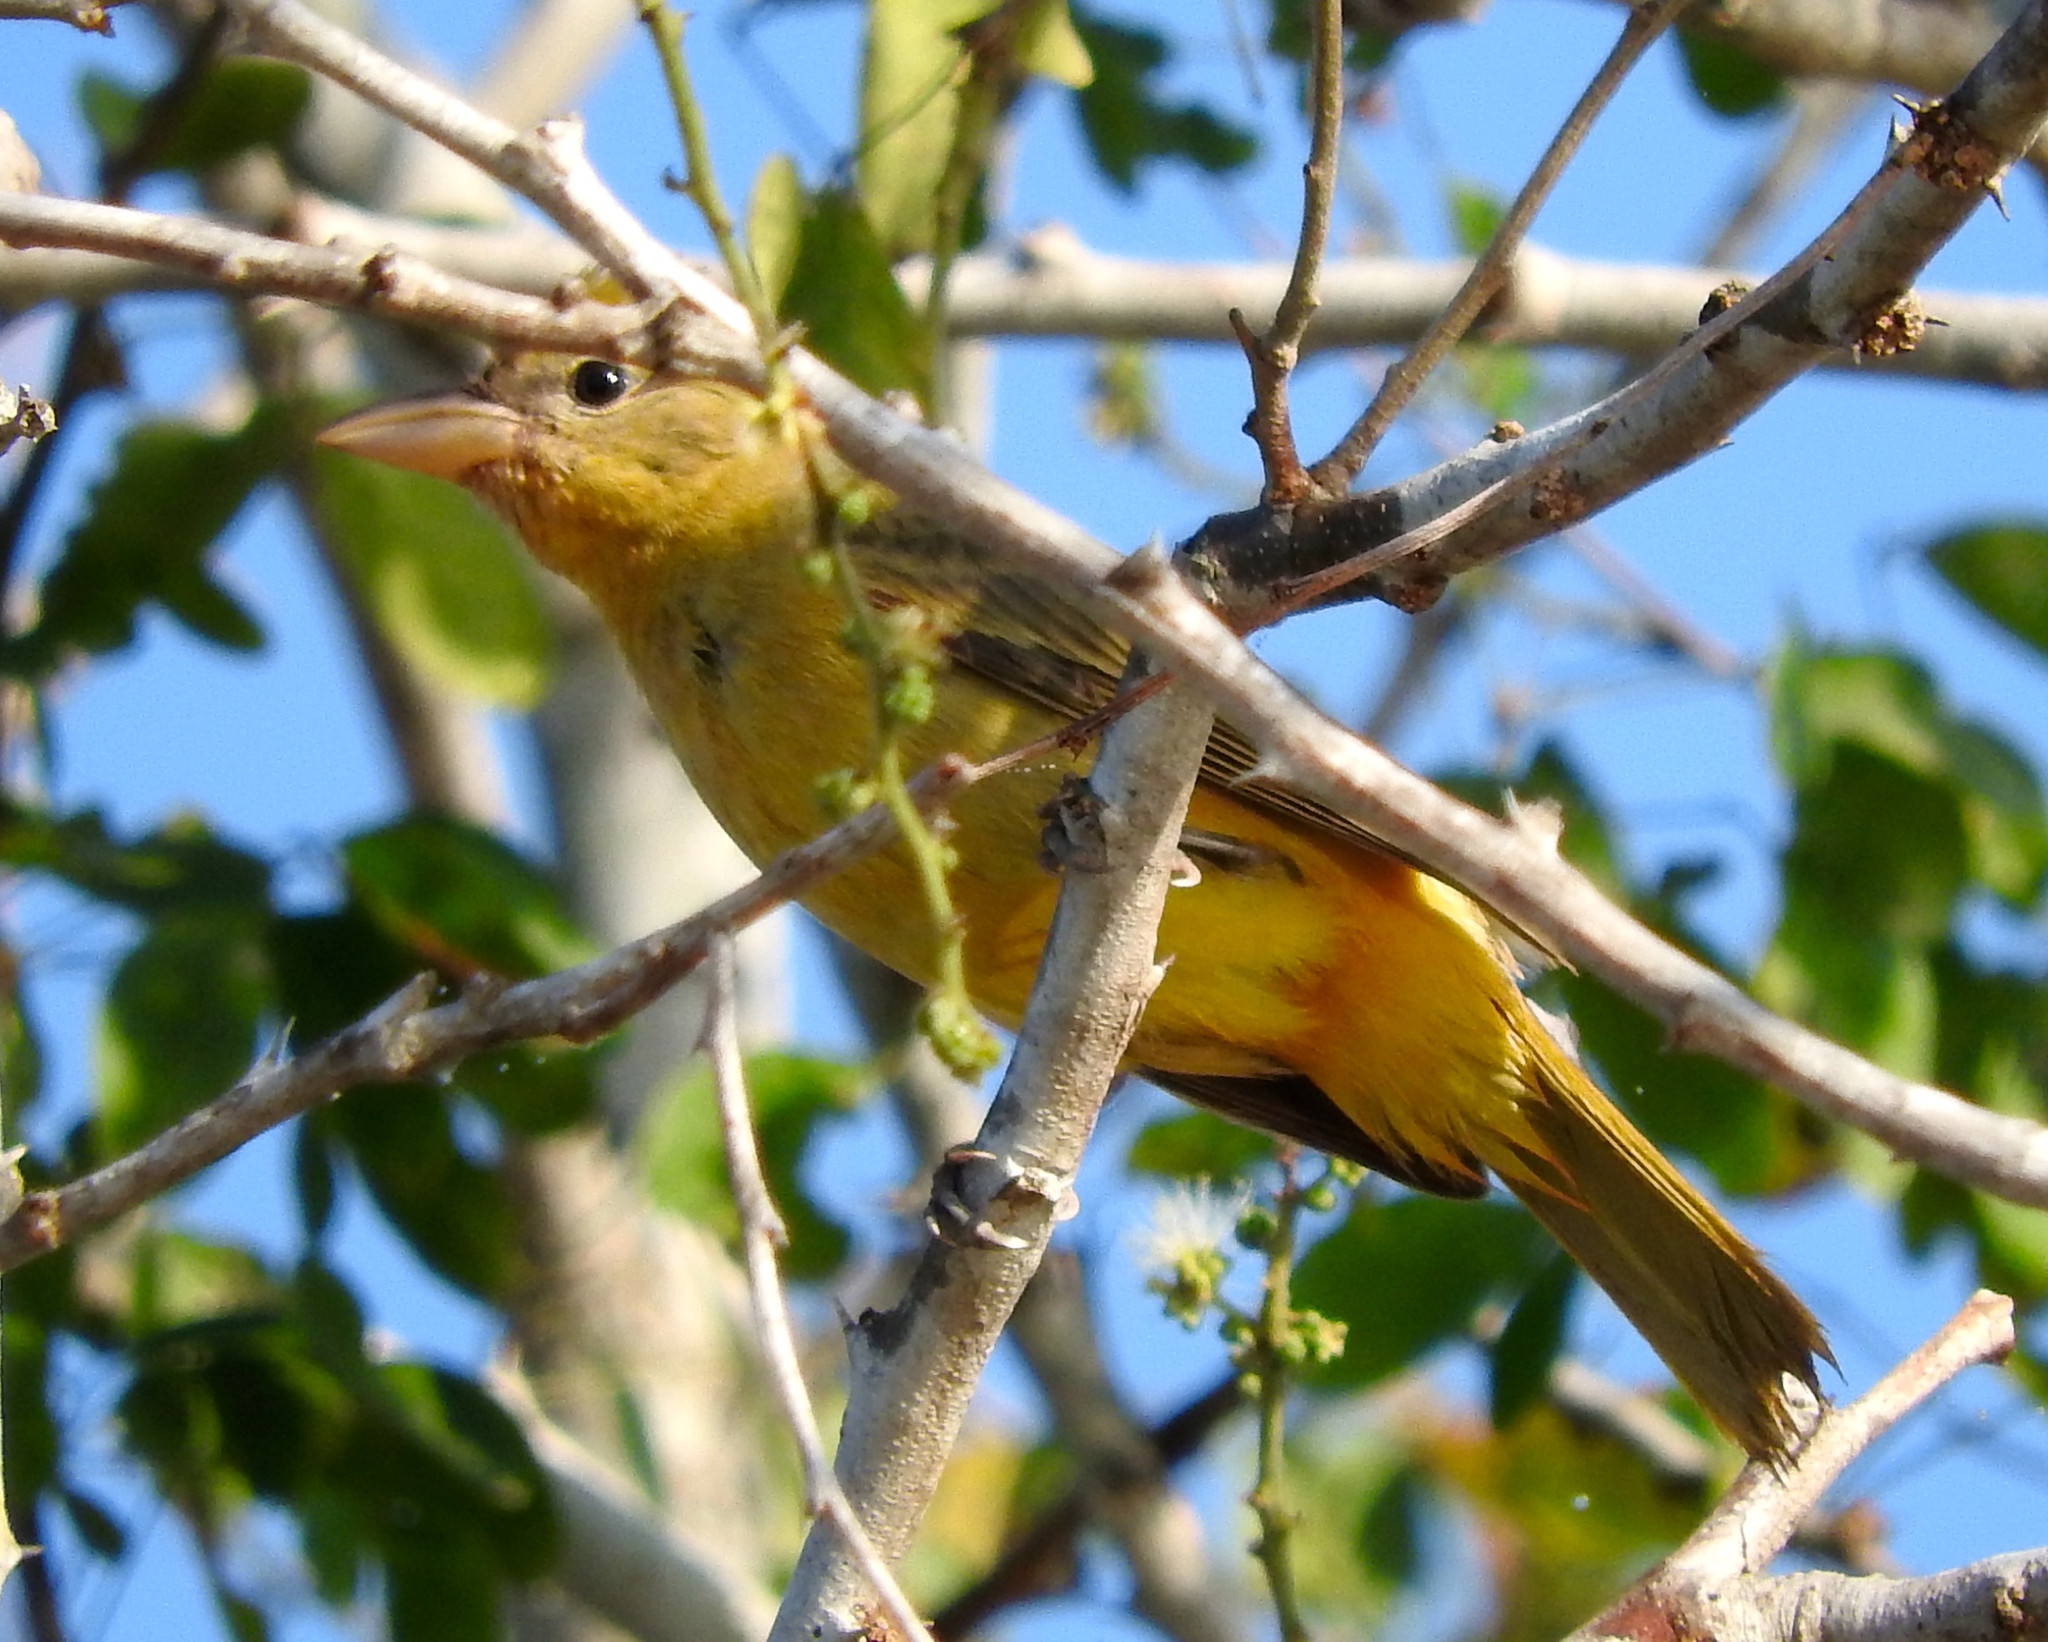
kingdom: Animalia
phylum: Chordata
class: Aves
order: Passeriformes
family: Cardinalidae
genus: Piranga
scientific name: Piranga rubra
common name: Summer tanager
